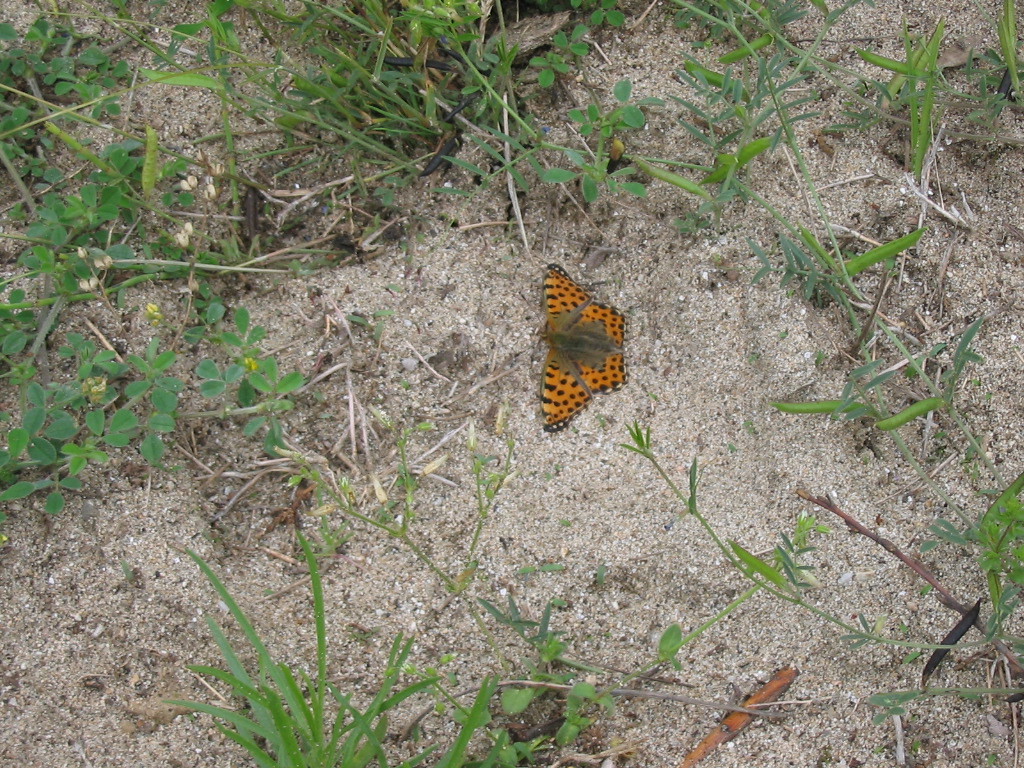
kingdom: Animalia
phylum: Arthropoda
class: Insecta
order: Lepidoptera
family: Nymphalidae
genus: Issoria
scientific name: Issoria lathonia
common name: Queen of spain fritillary
